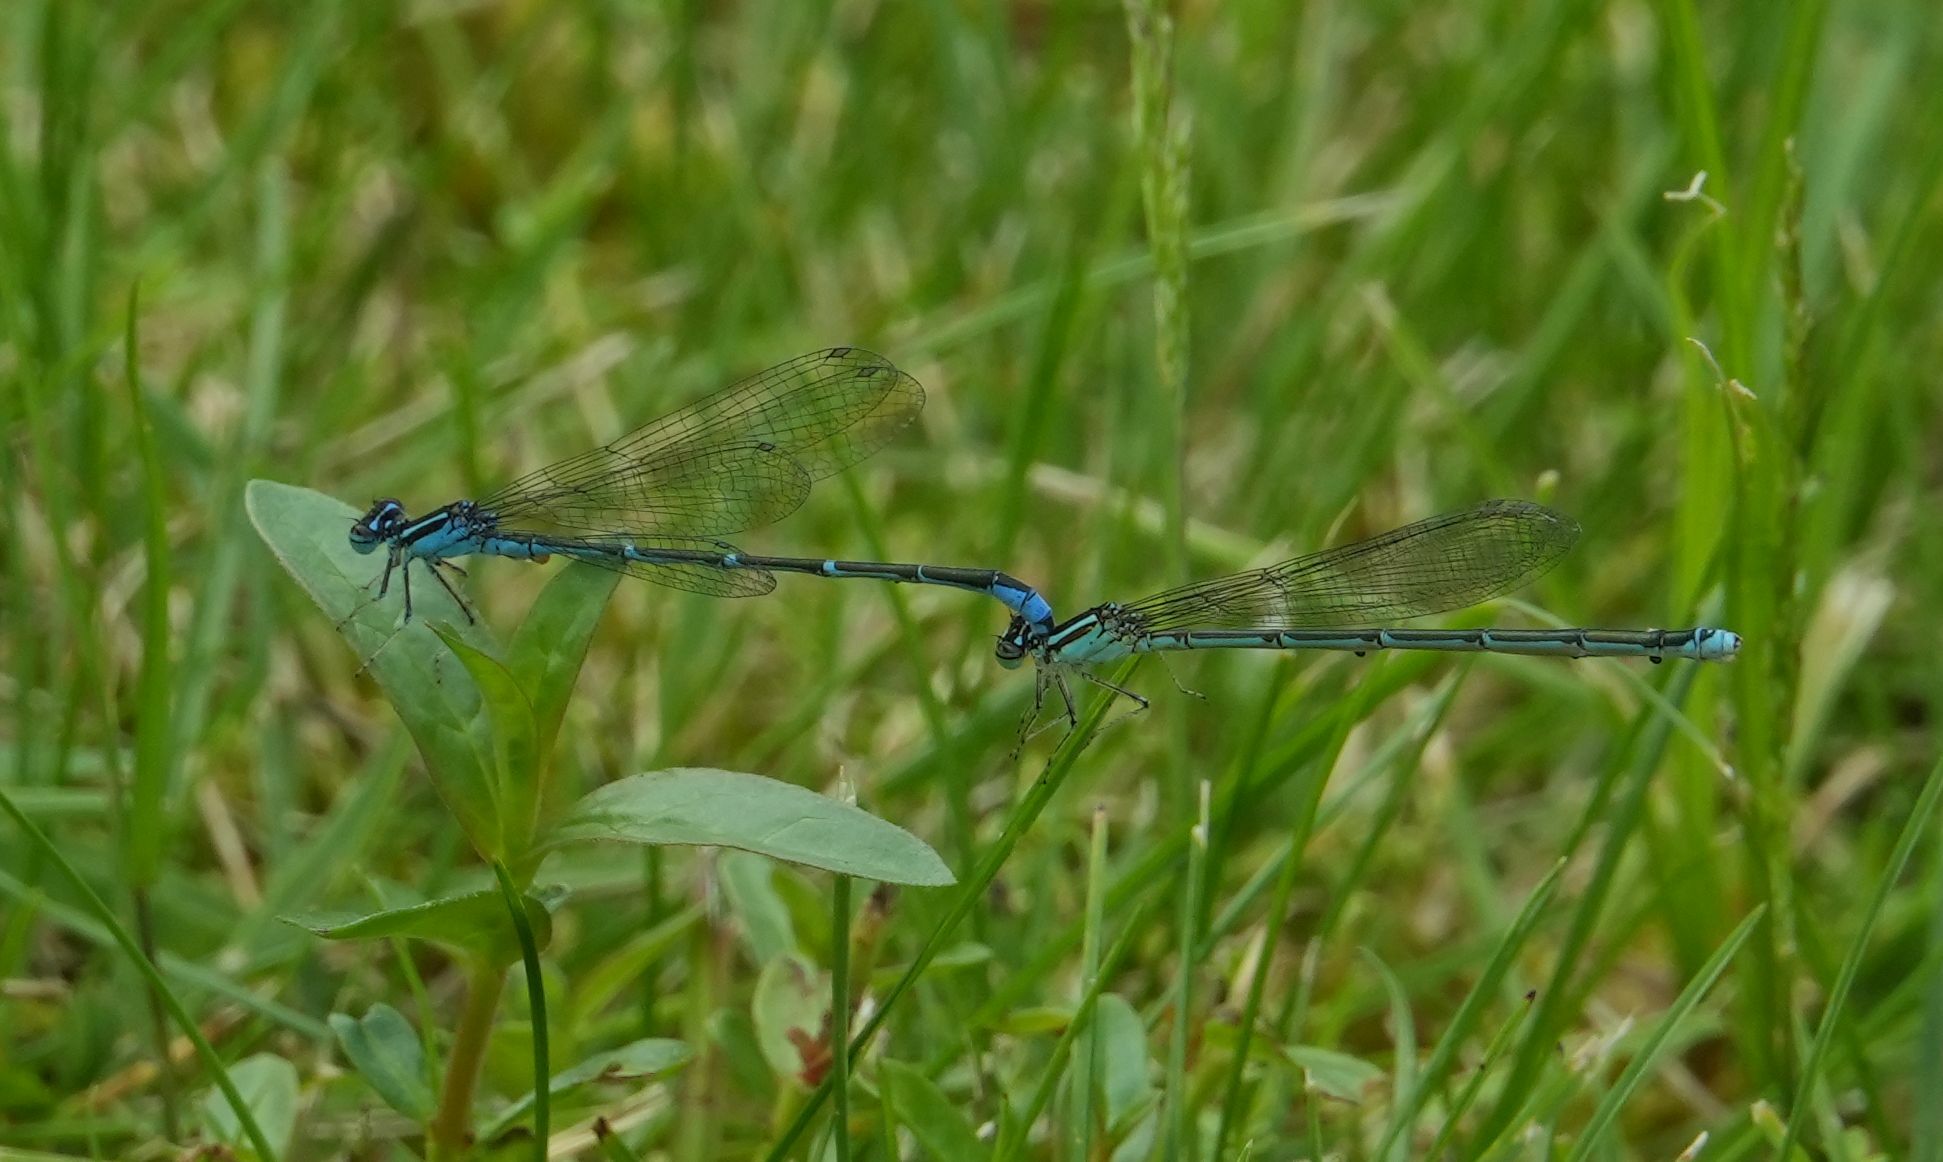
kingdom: Animalia
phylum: Arthropoda
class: Insecta
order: Odonata
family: Coenagrionidae
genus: Enallagma
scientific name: Enallagma exsulans
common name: Stream bluet
